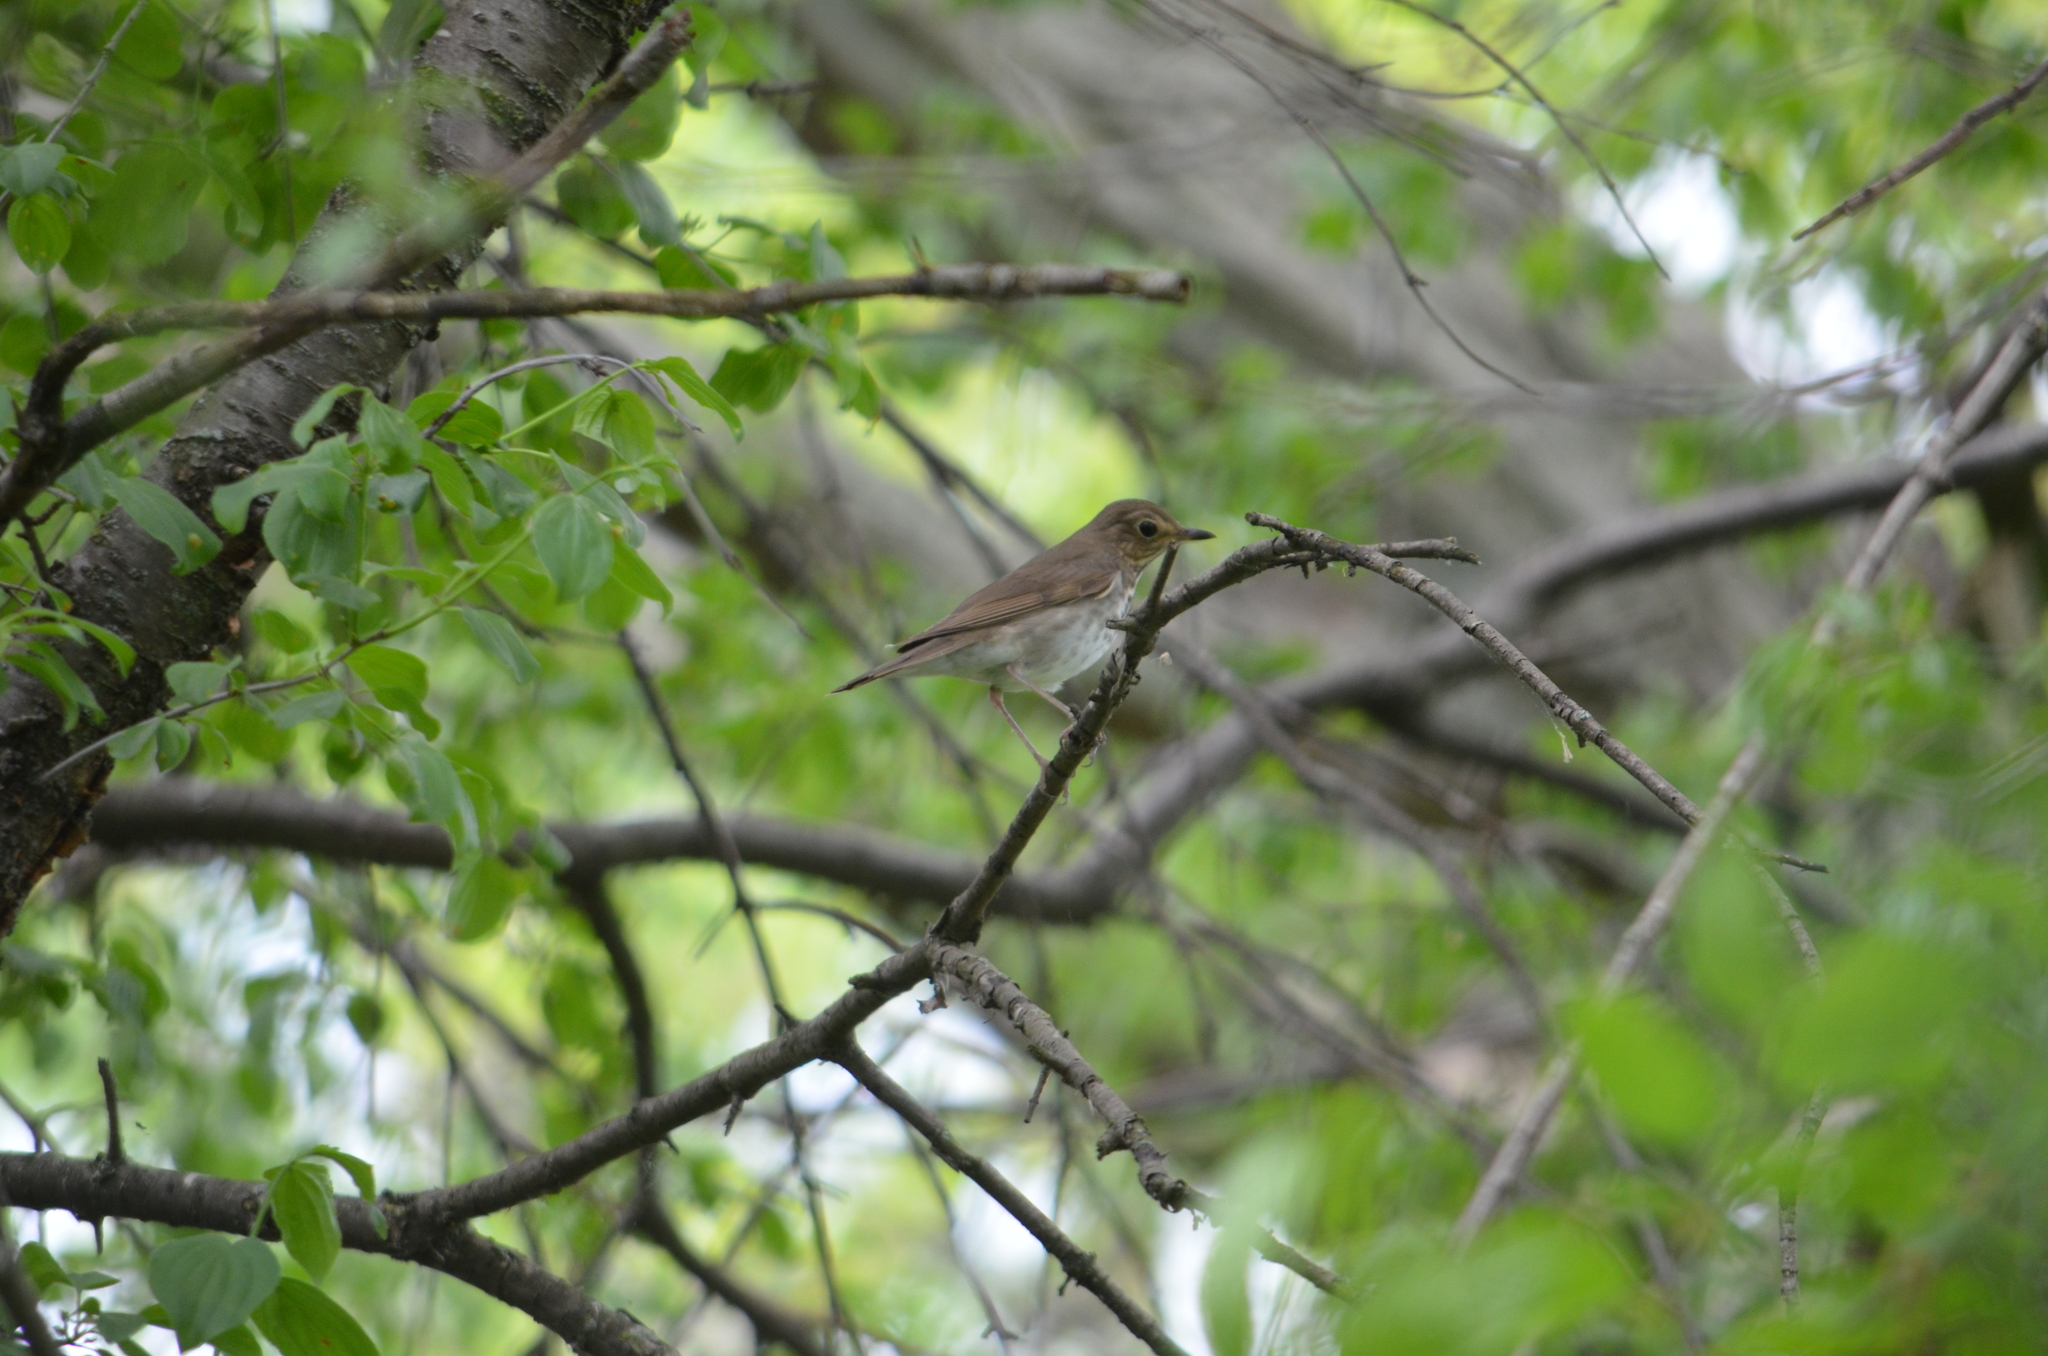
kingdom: Animalia
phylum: Chordata
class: Aves
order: Passeriformes
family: Turdidae
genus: Catharus
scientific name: Catharus ustulatus
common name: Swainson's thrush
